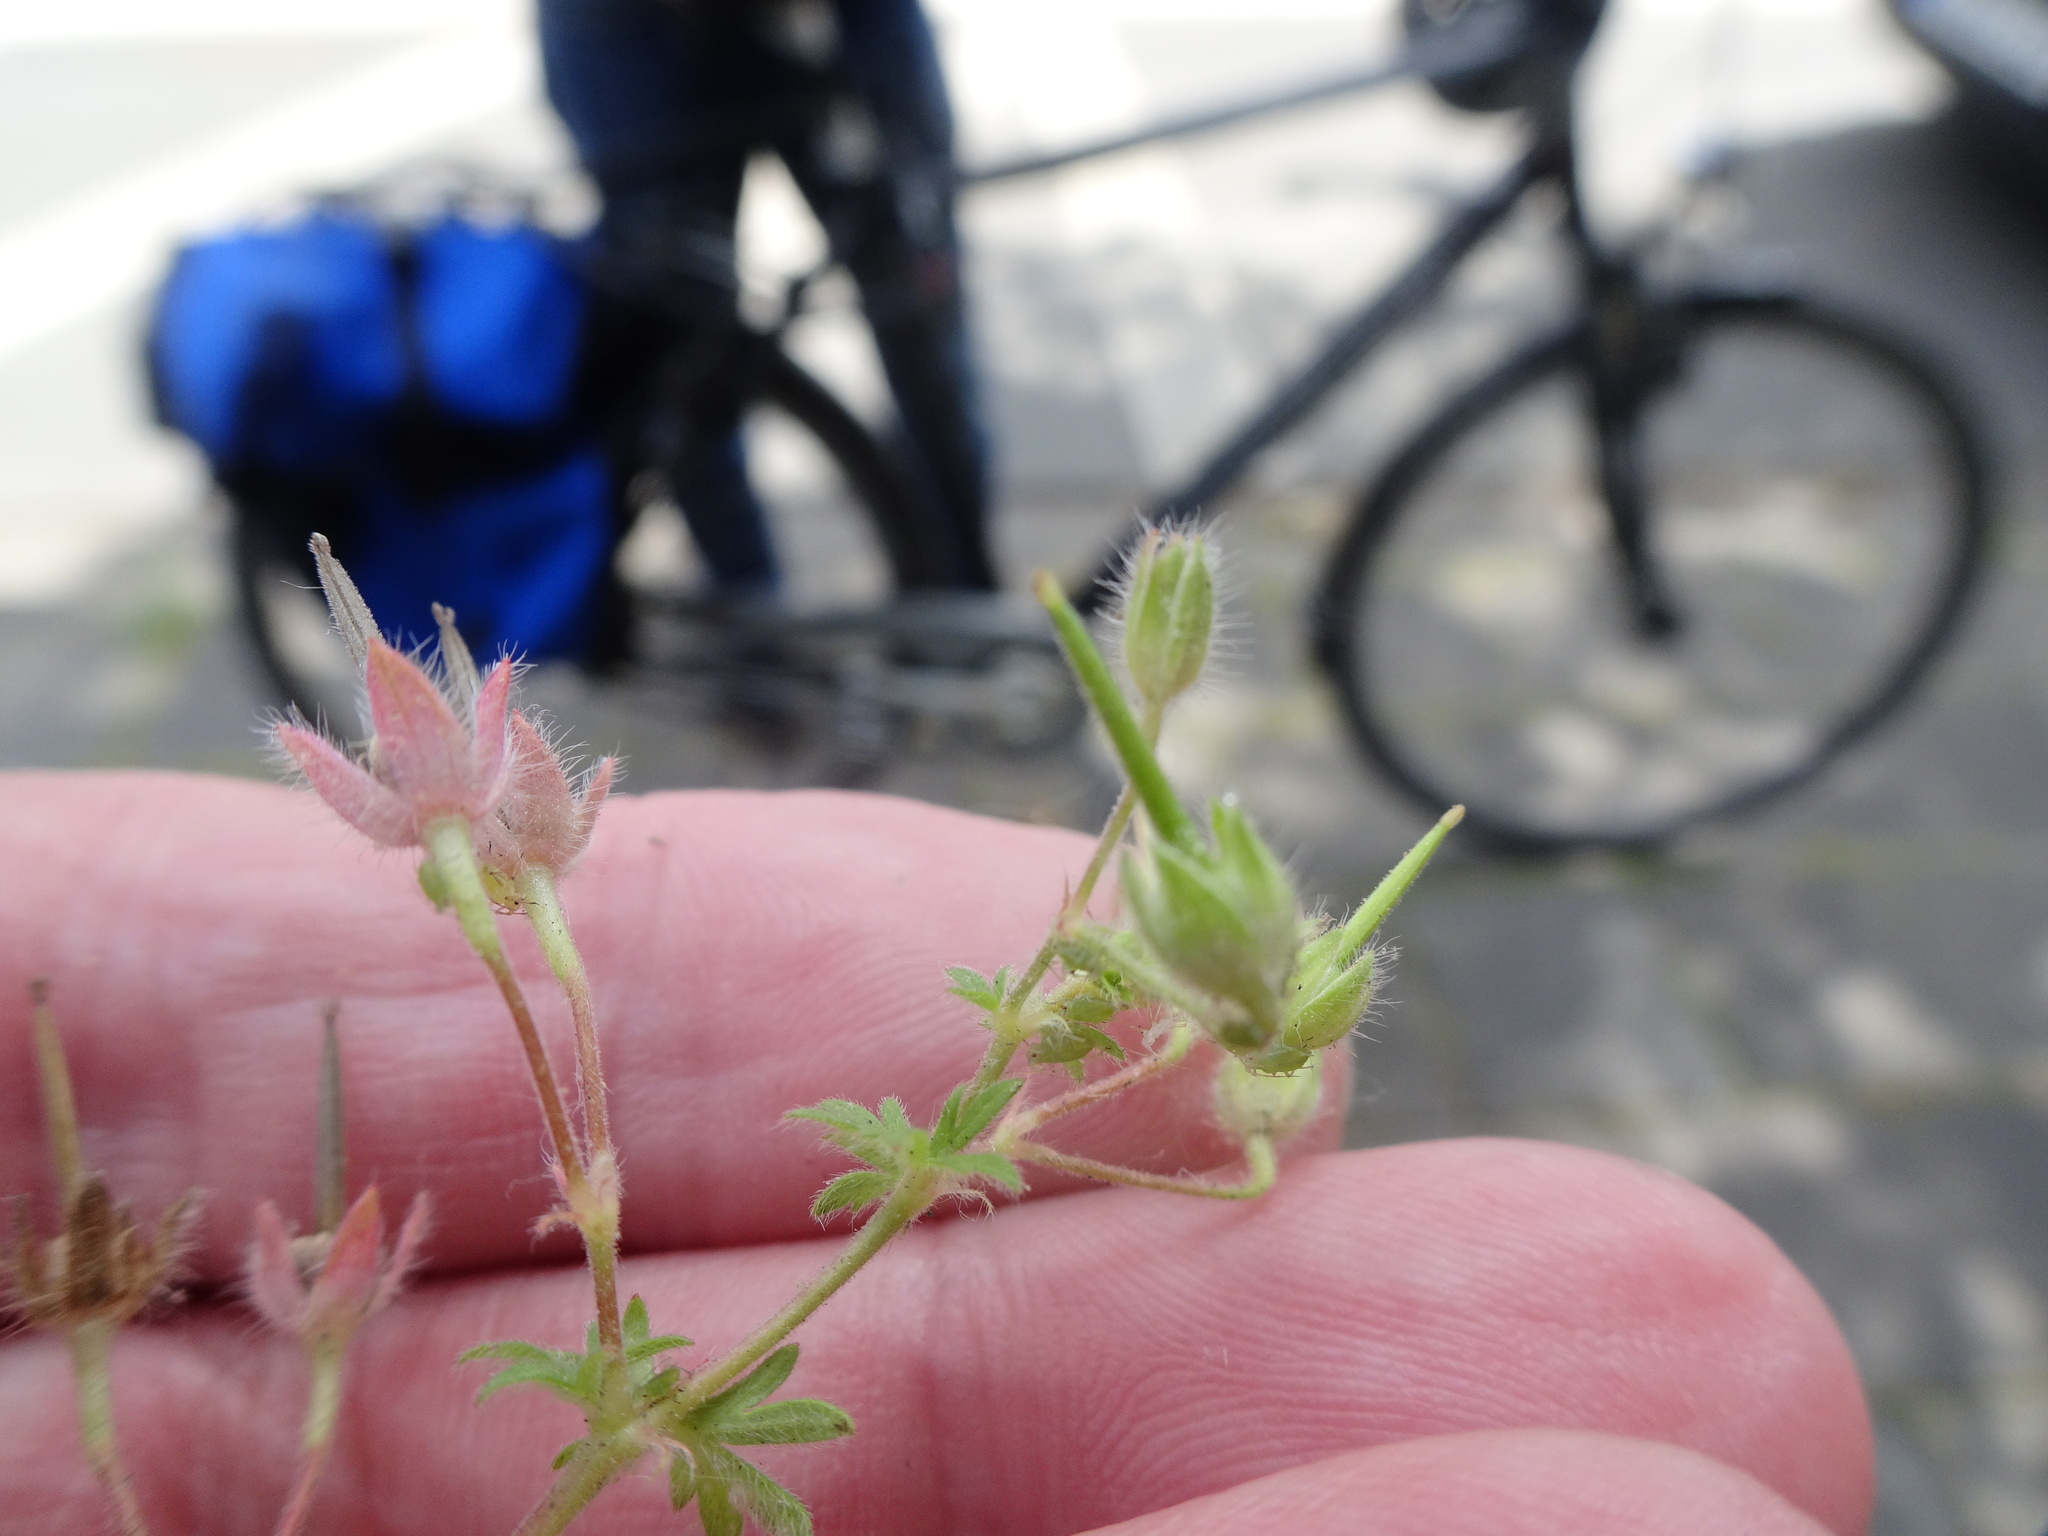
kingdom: Plantae
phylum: Tracheophyta
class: Magnoliopsida
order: Geraniales
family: Geraniaceae
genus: Geranium
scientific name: Geranium molle
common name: Dove's-foot crane's-bill
